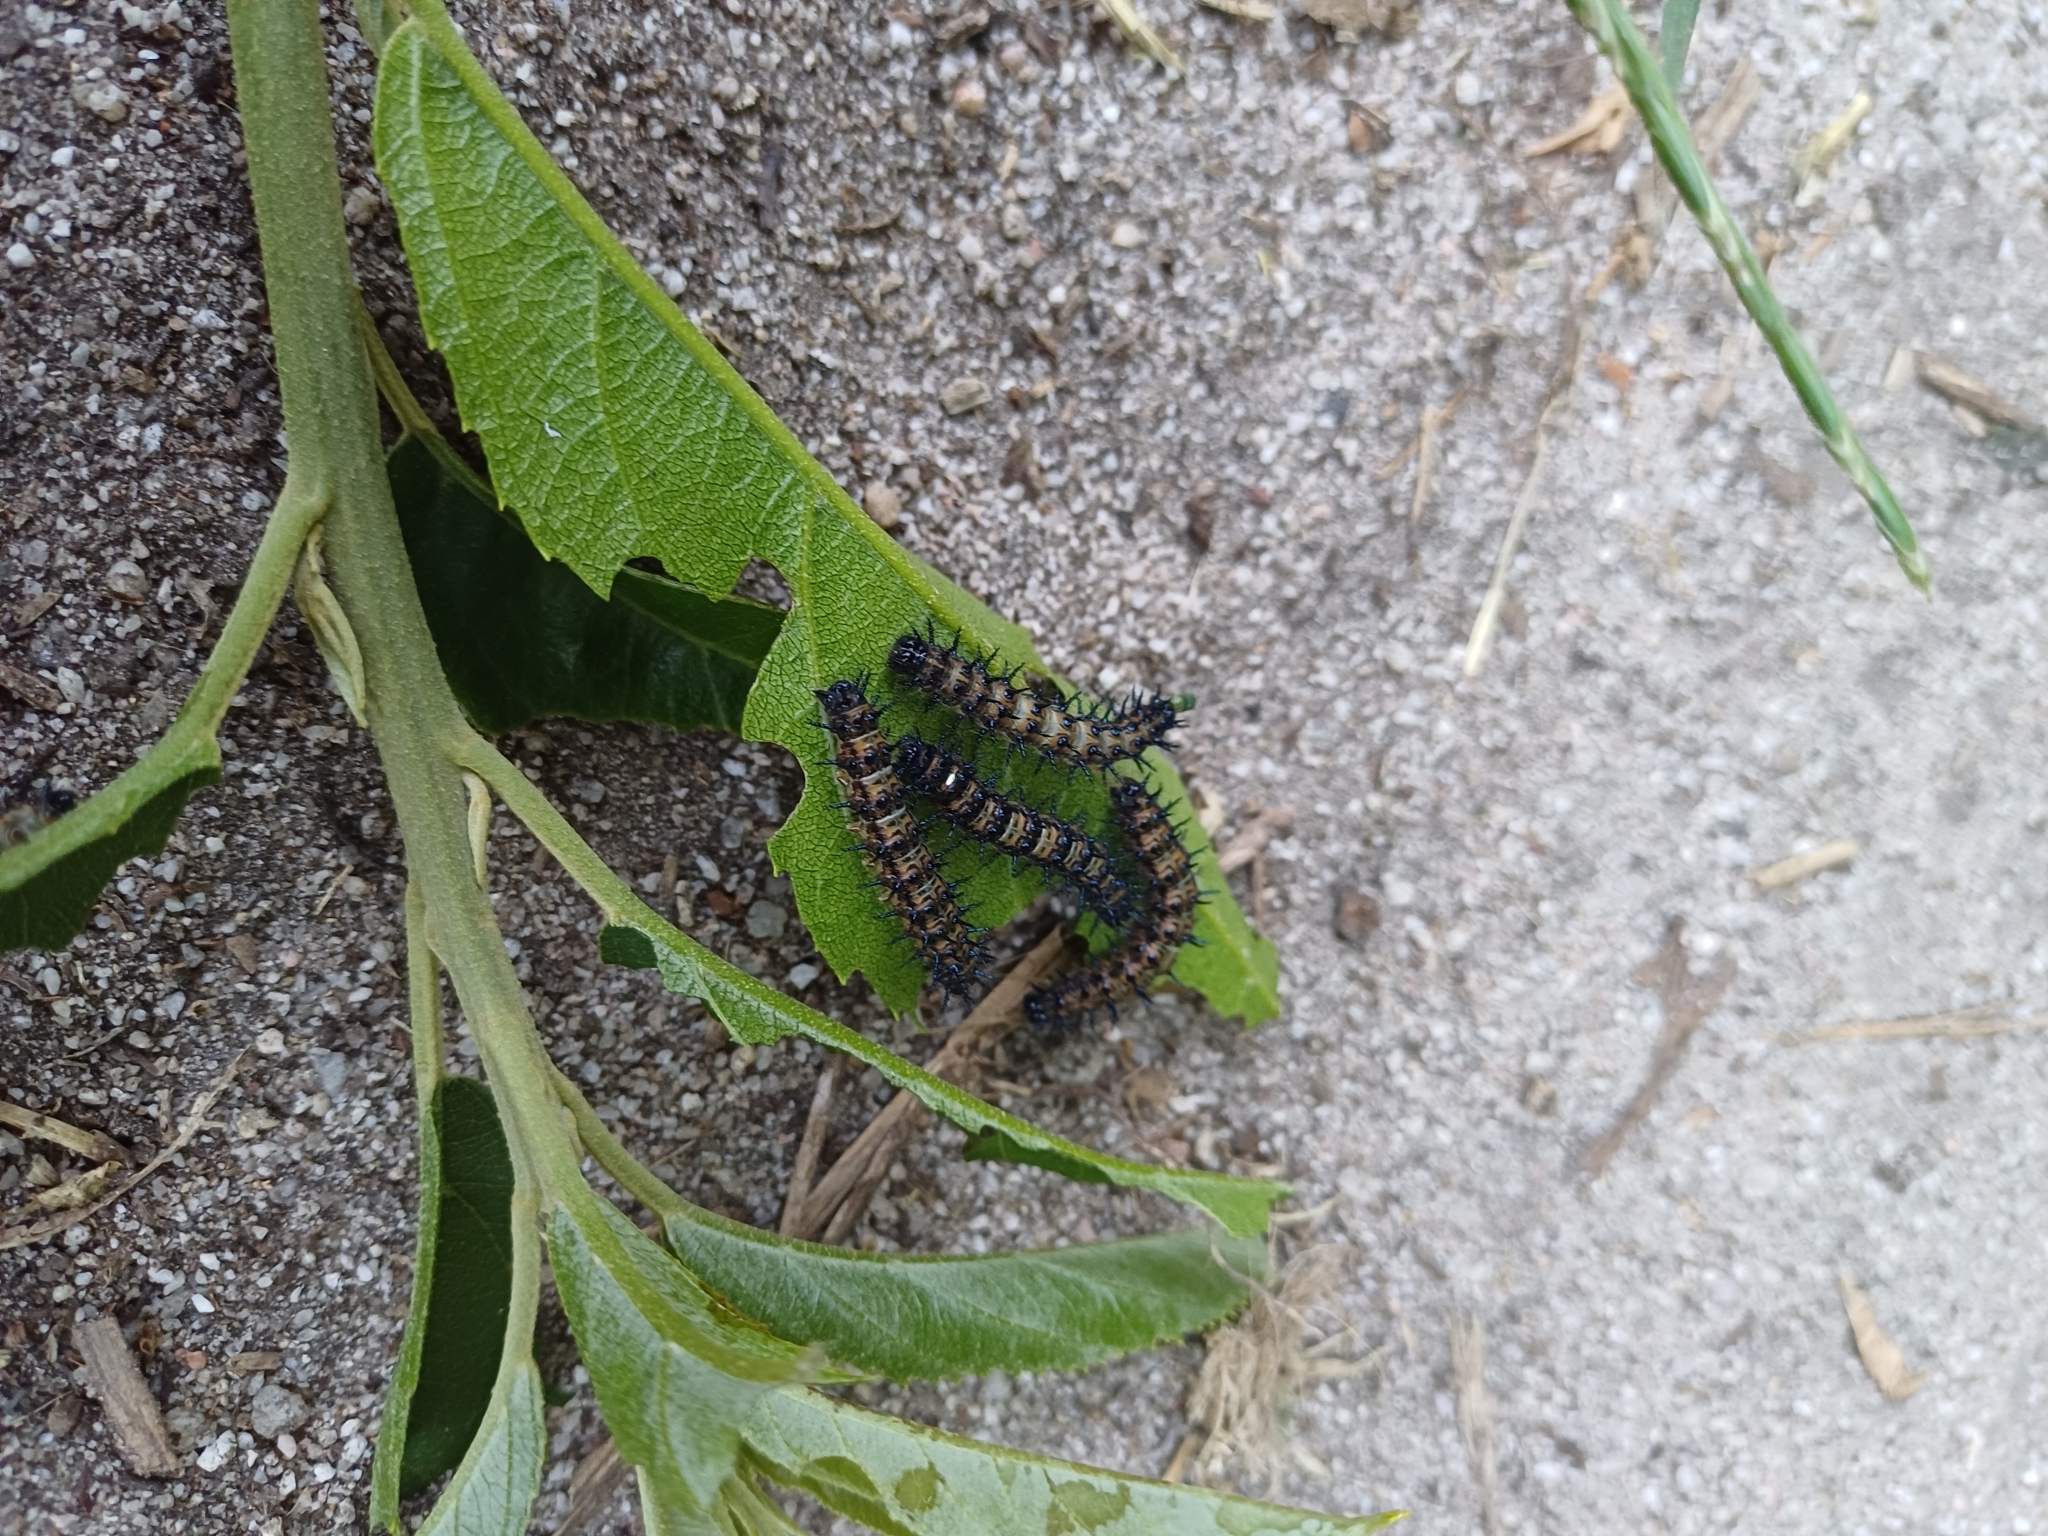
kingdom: Animalia
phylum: Arthropoda
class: Insecta
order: Lepidoptera
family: Nymphalidae
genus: Acraea
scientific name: Acraea horta
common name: Garden acraea
